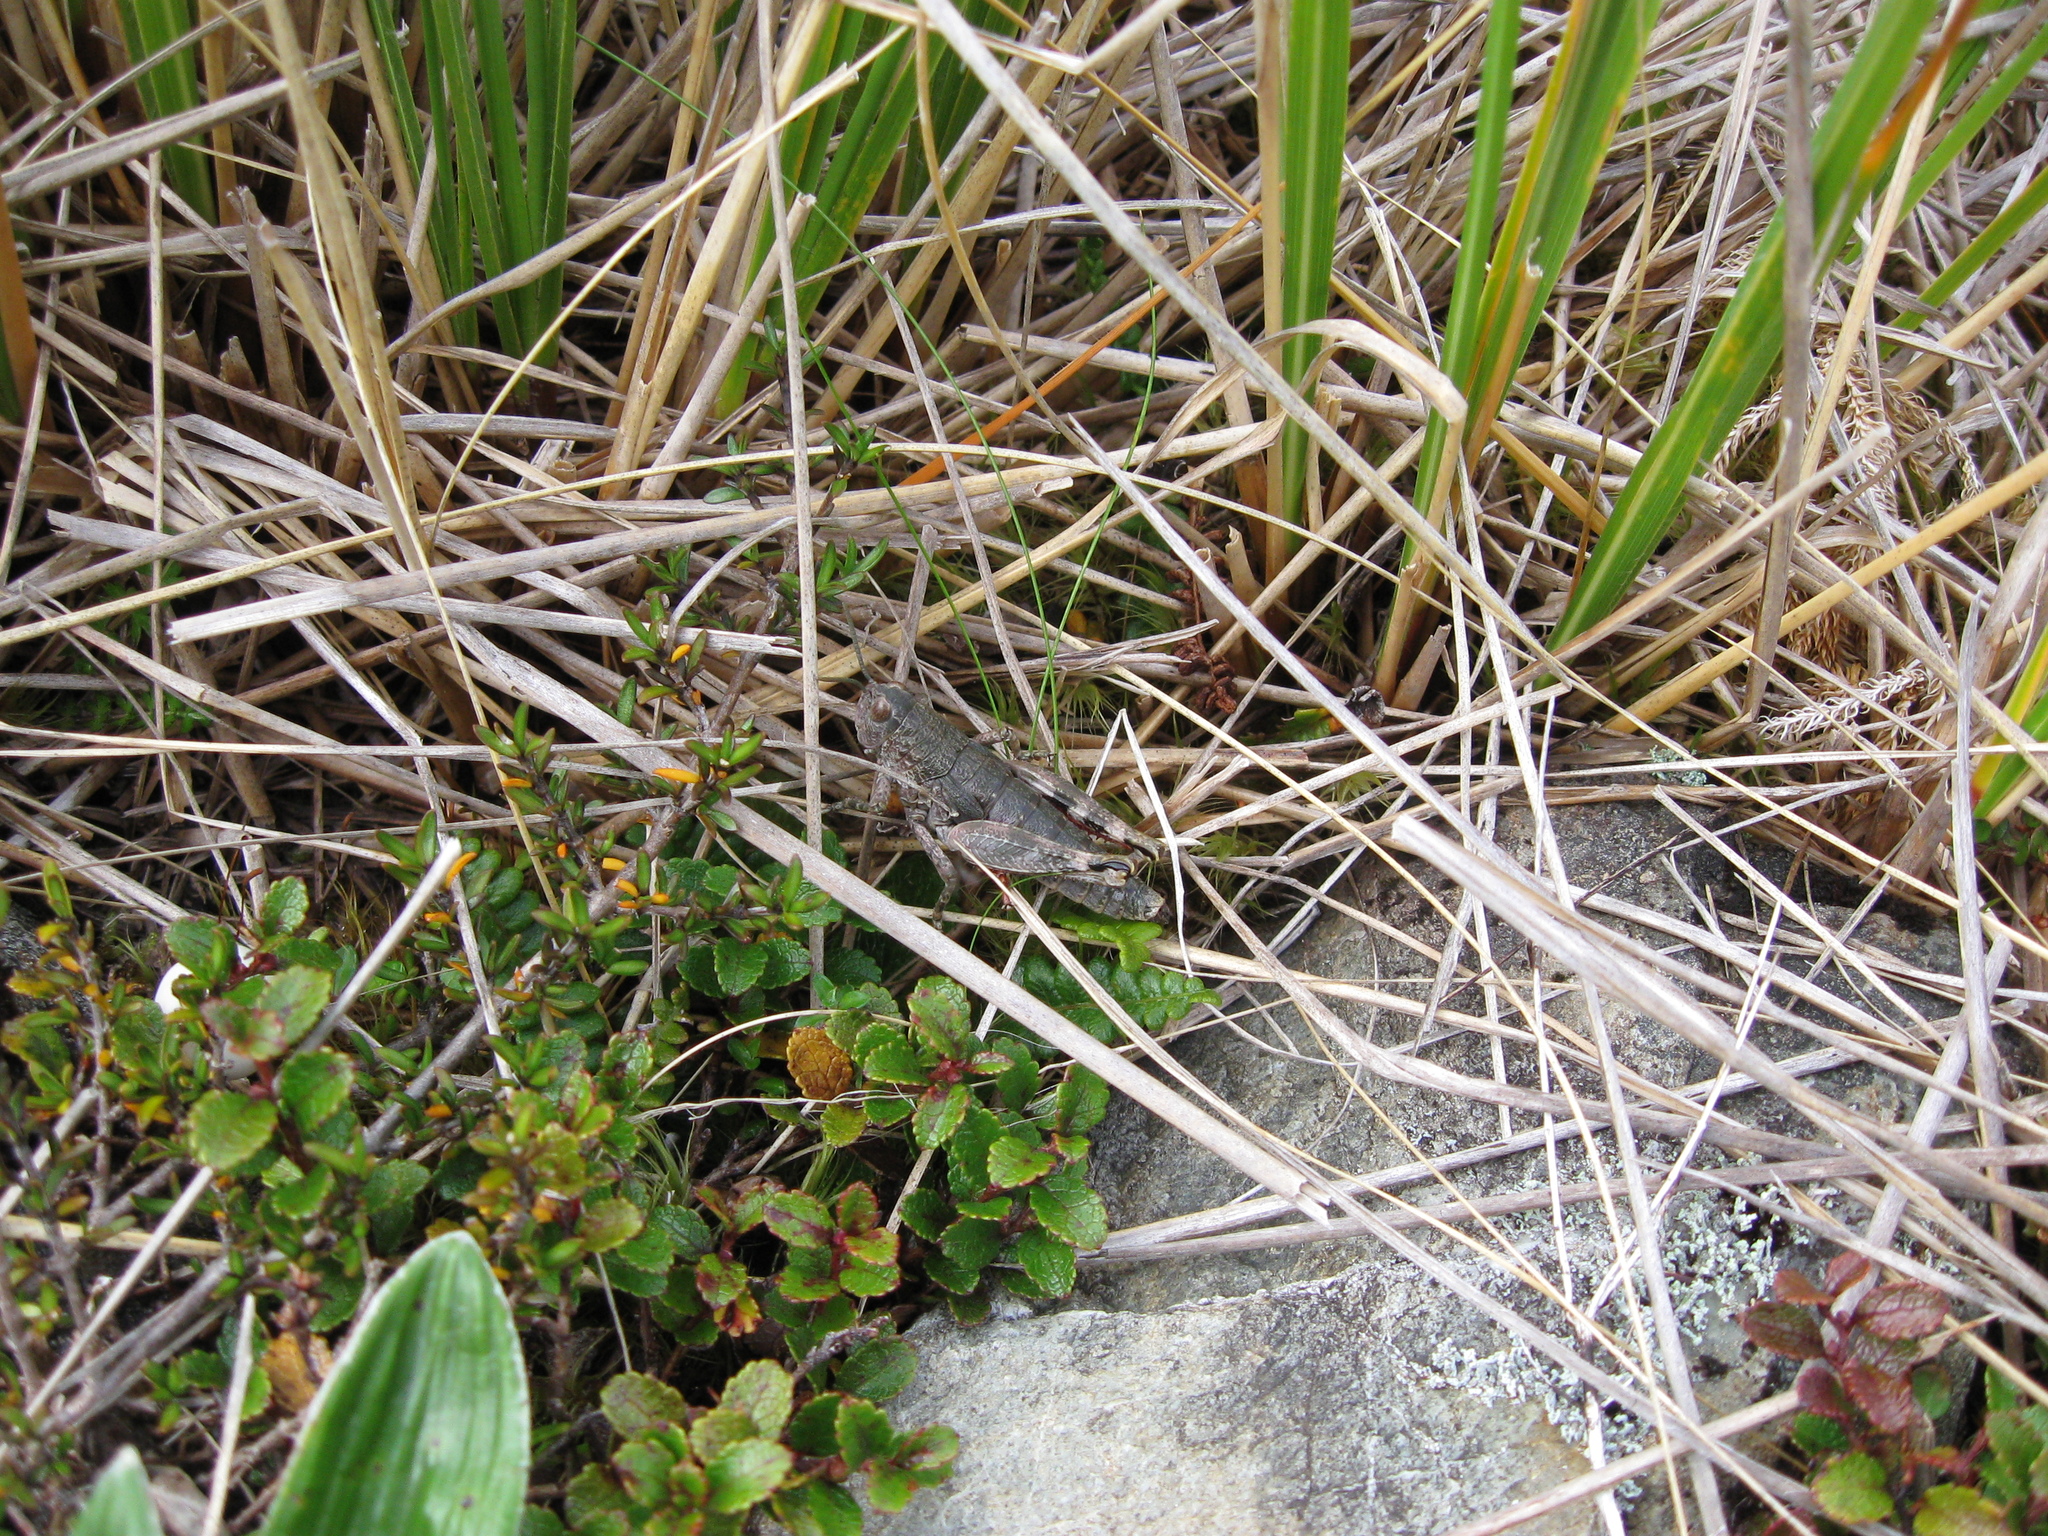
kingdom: Animalia
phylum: Arthropoda
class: Insecta
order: Orthoptera
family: Acrididae
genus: Sigaus
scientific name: Sigaus
